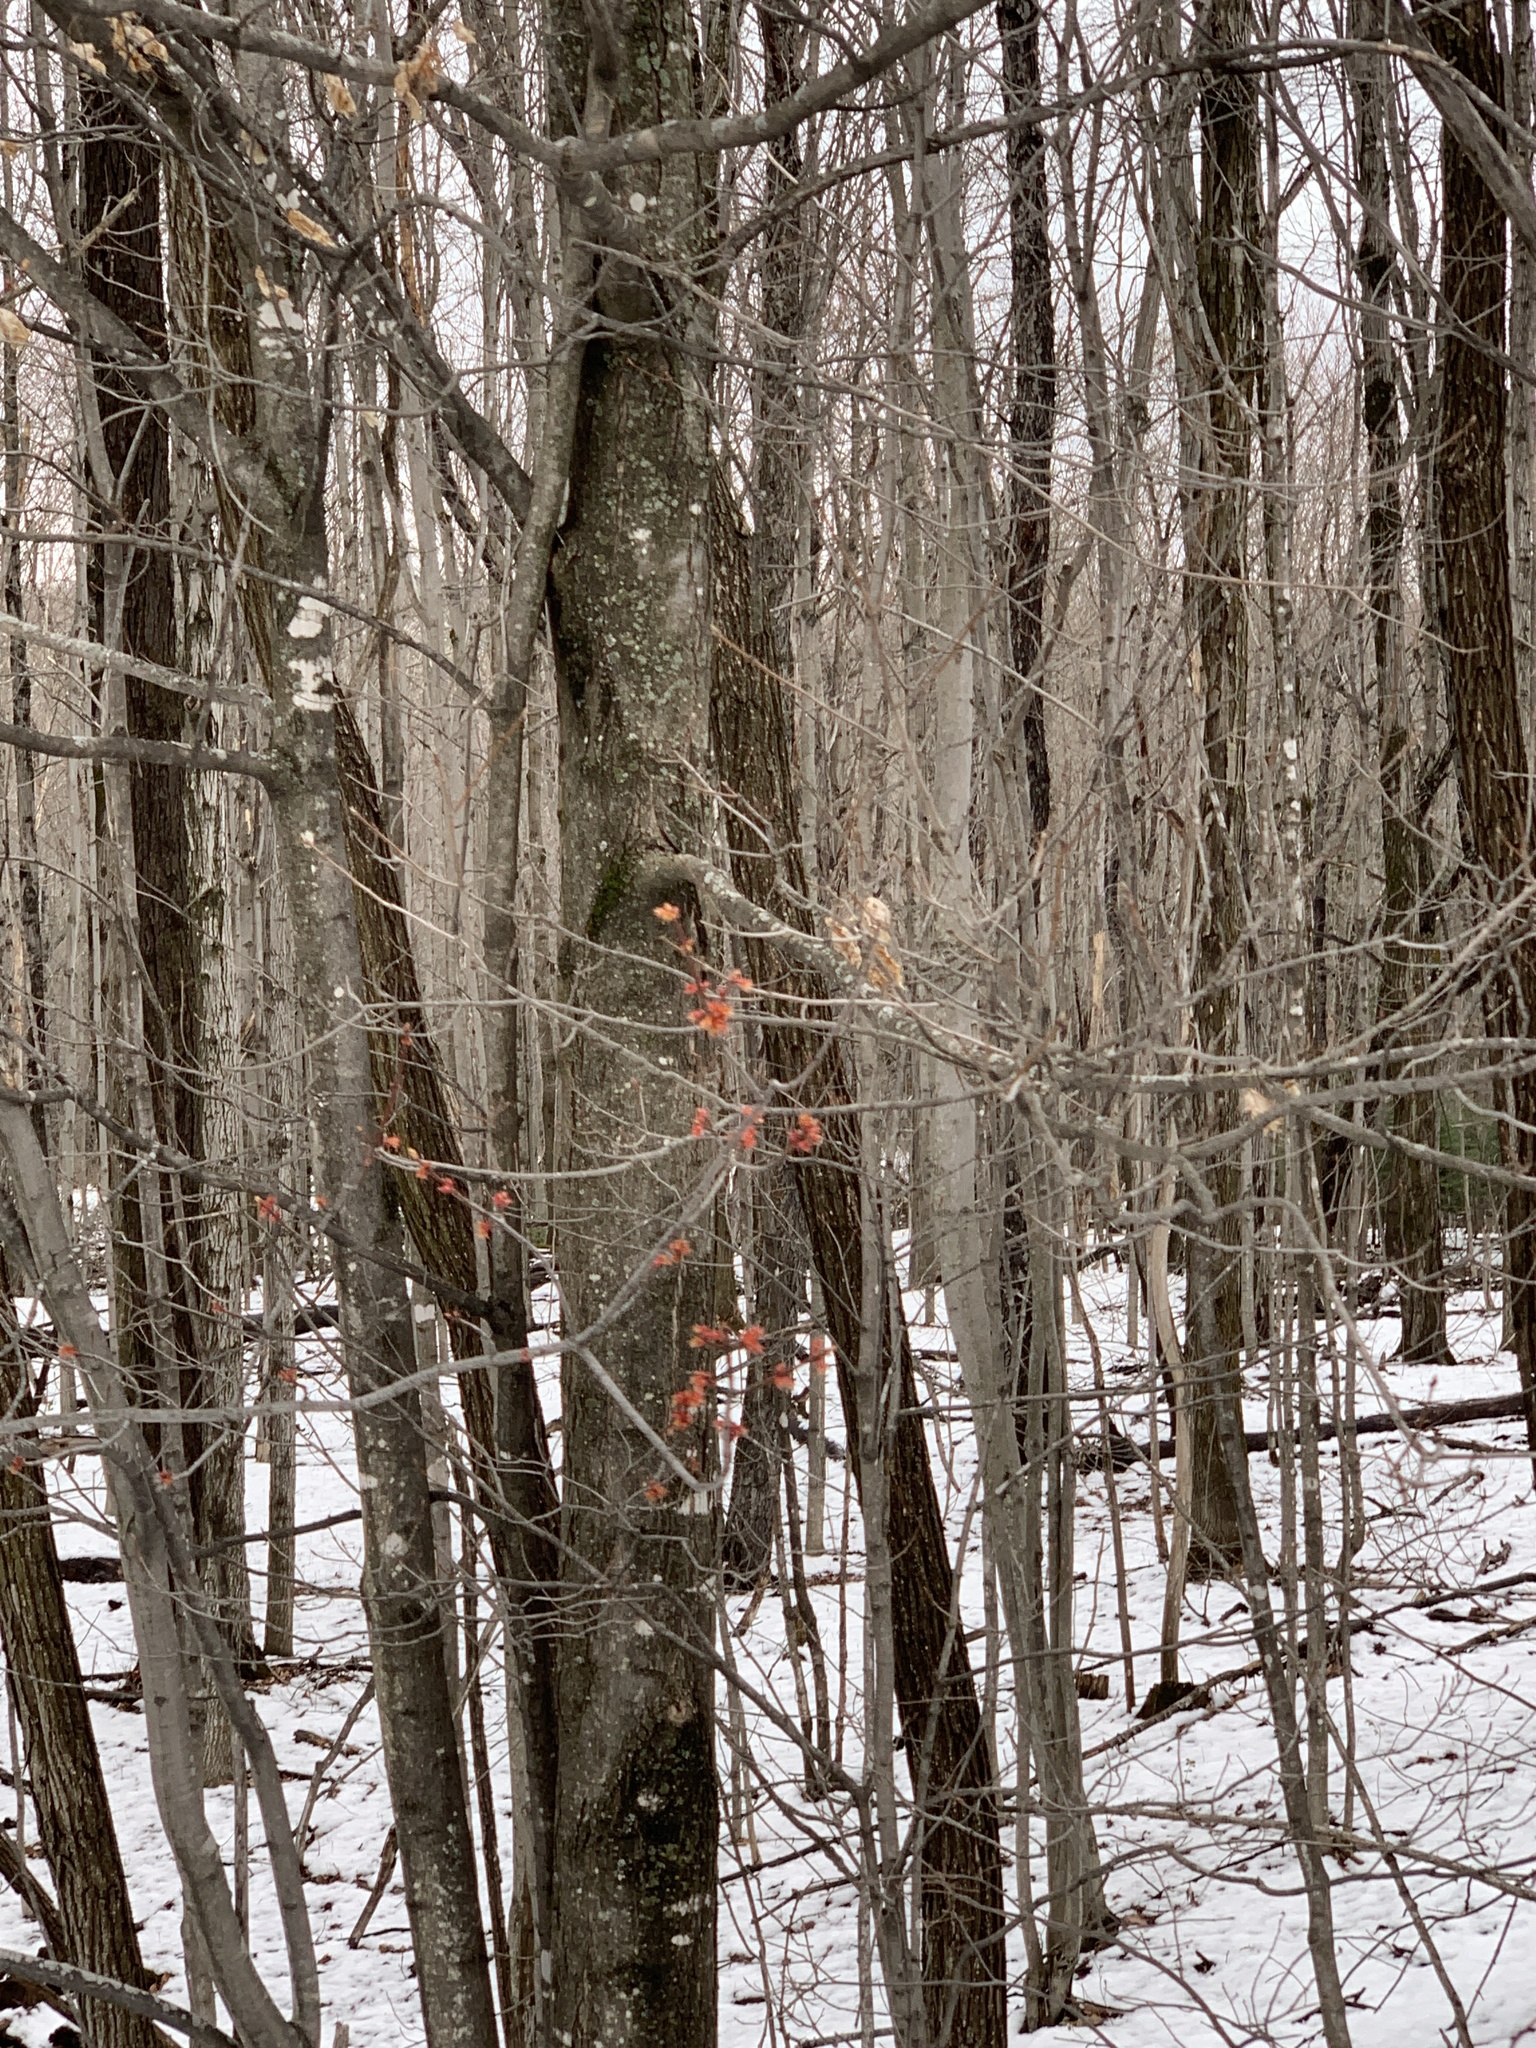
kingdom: Plantae
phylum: Tracheophyta
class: Magnoliopsida
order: Sapindales
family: Sapindaceae
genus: Acer
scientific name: Acer rubrum
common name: Red maple
